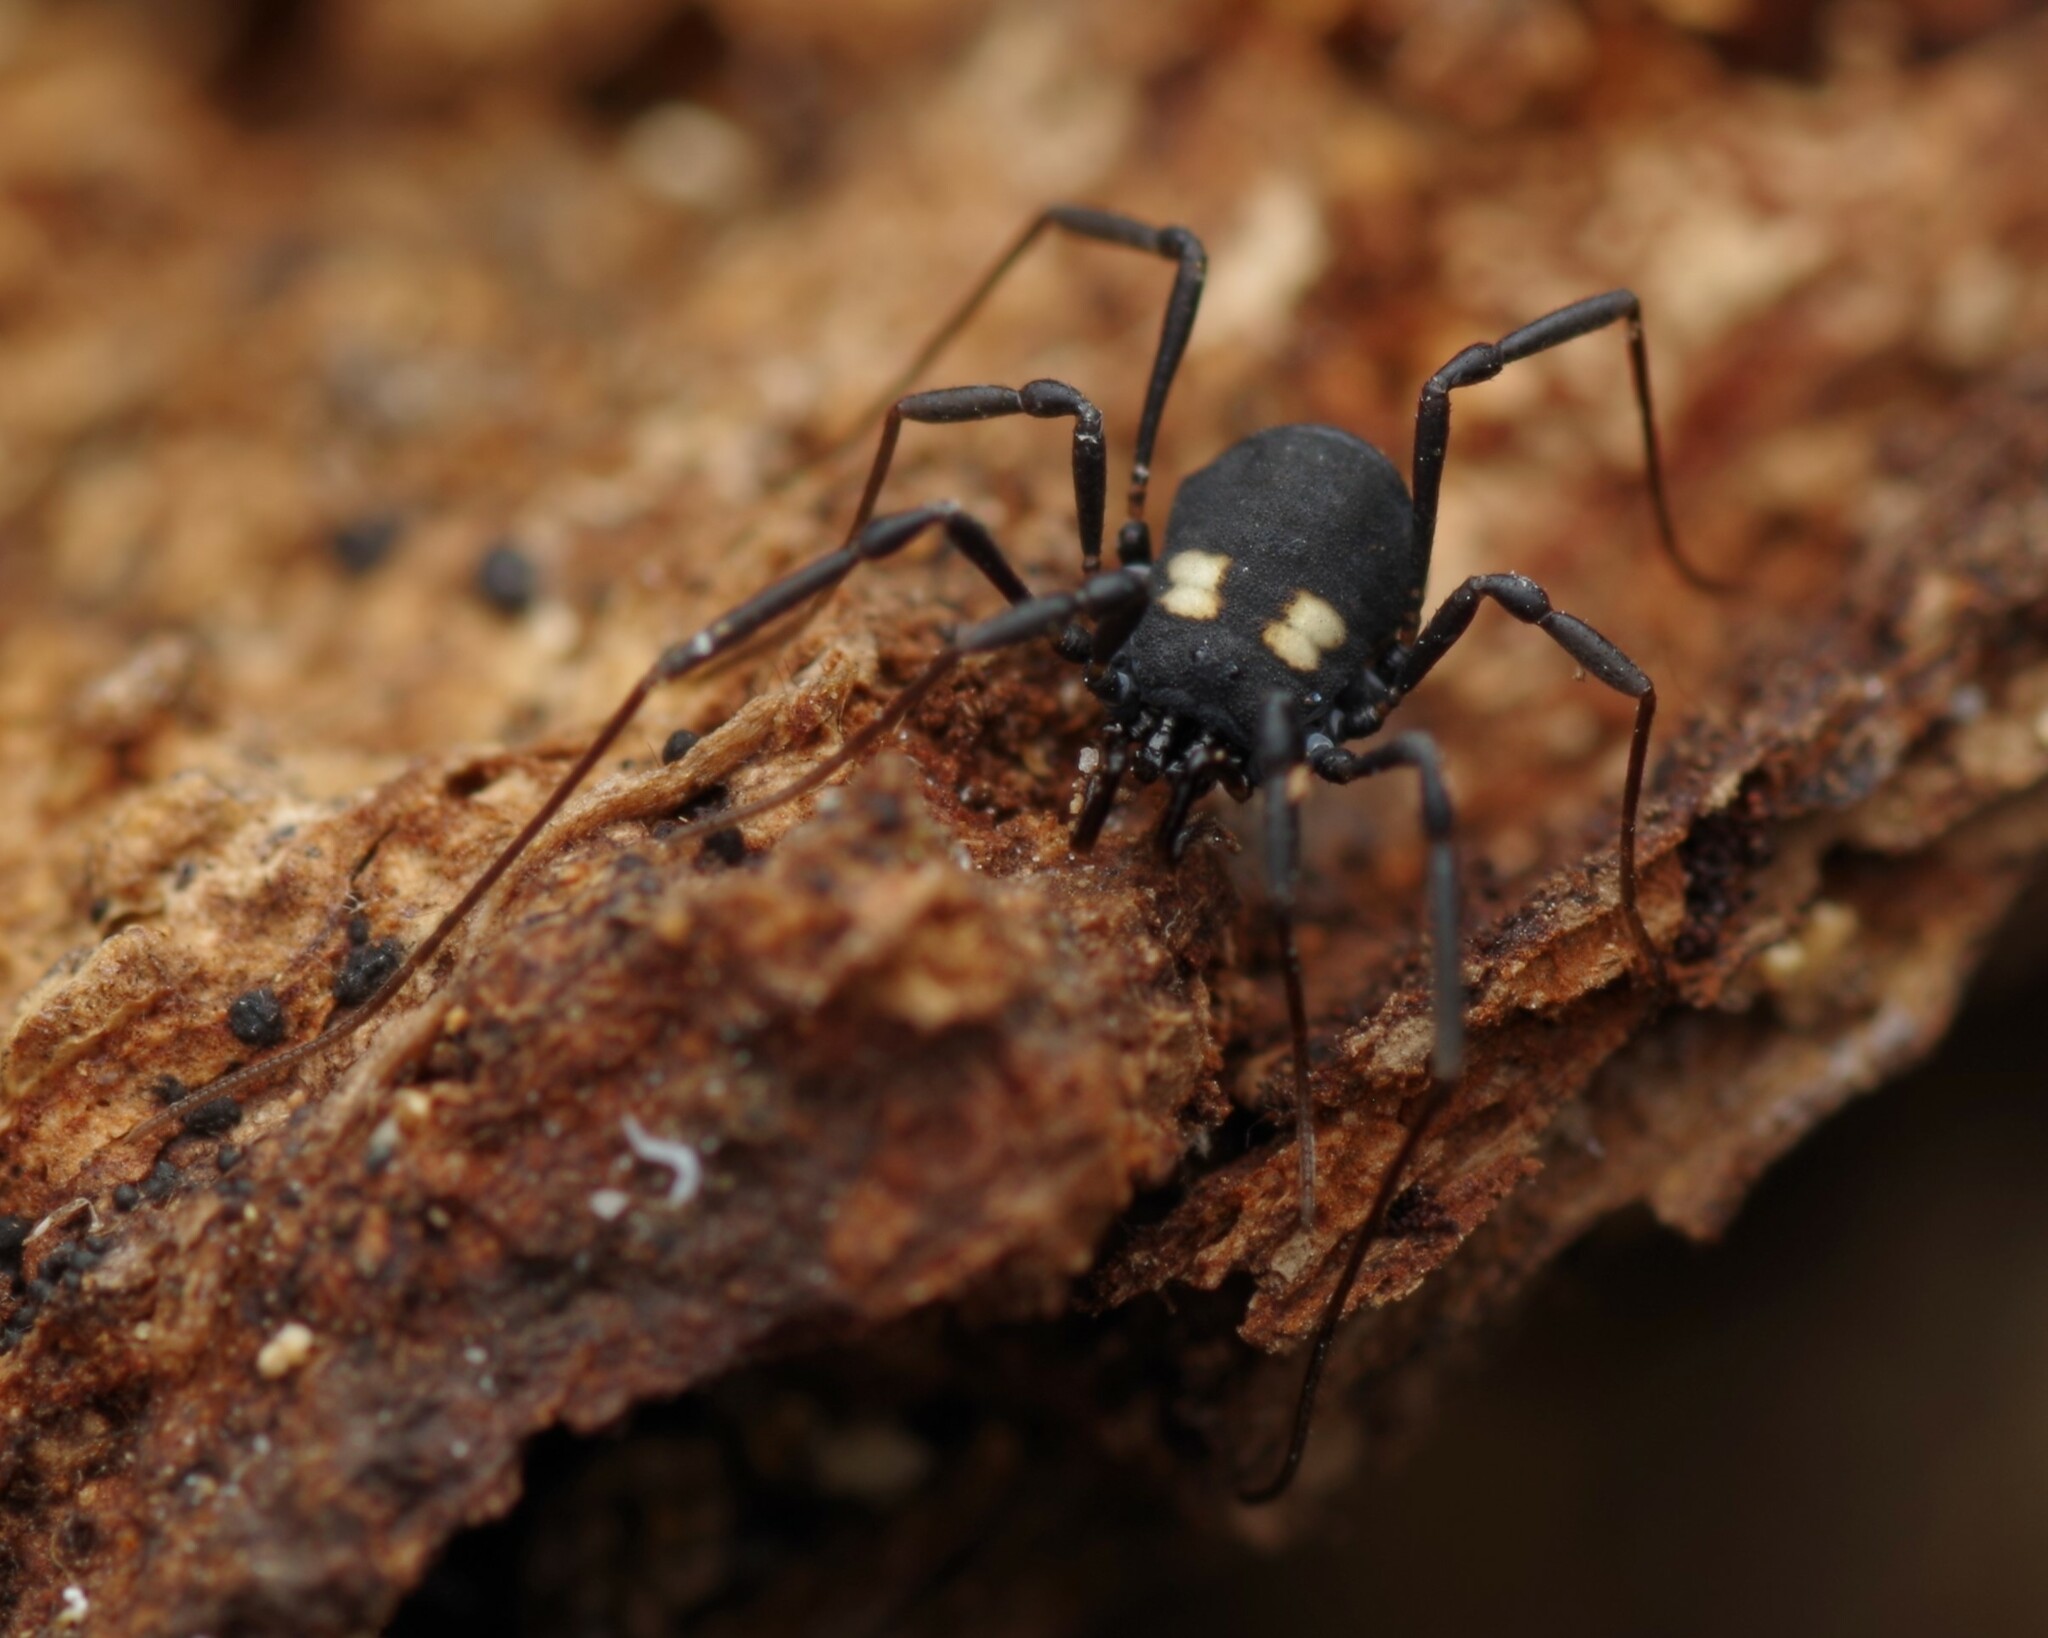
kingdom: Animalia
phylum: Arthropoda
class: Arachnida
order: Opiliones
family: Nemastomatidae
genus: Nemastoma
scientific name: Nemastoma bimaculatum
